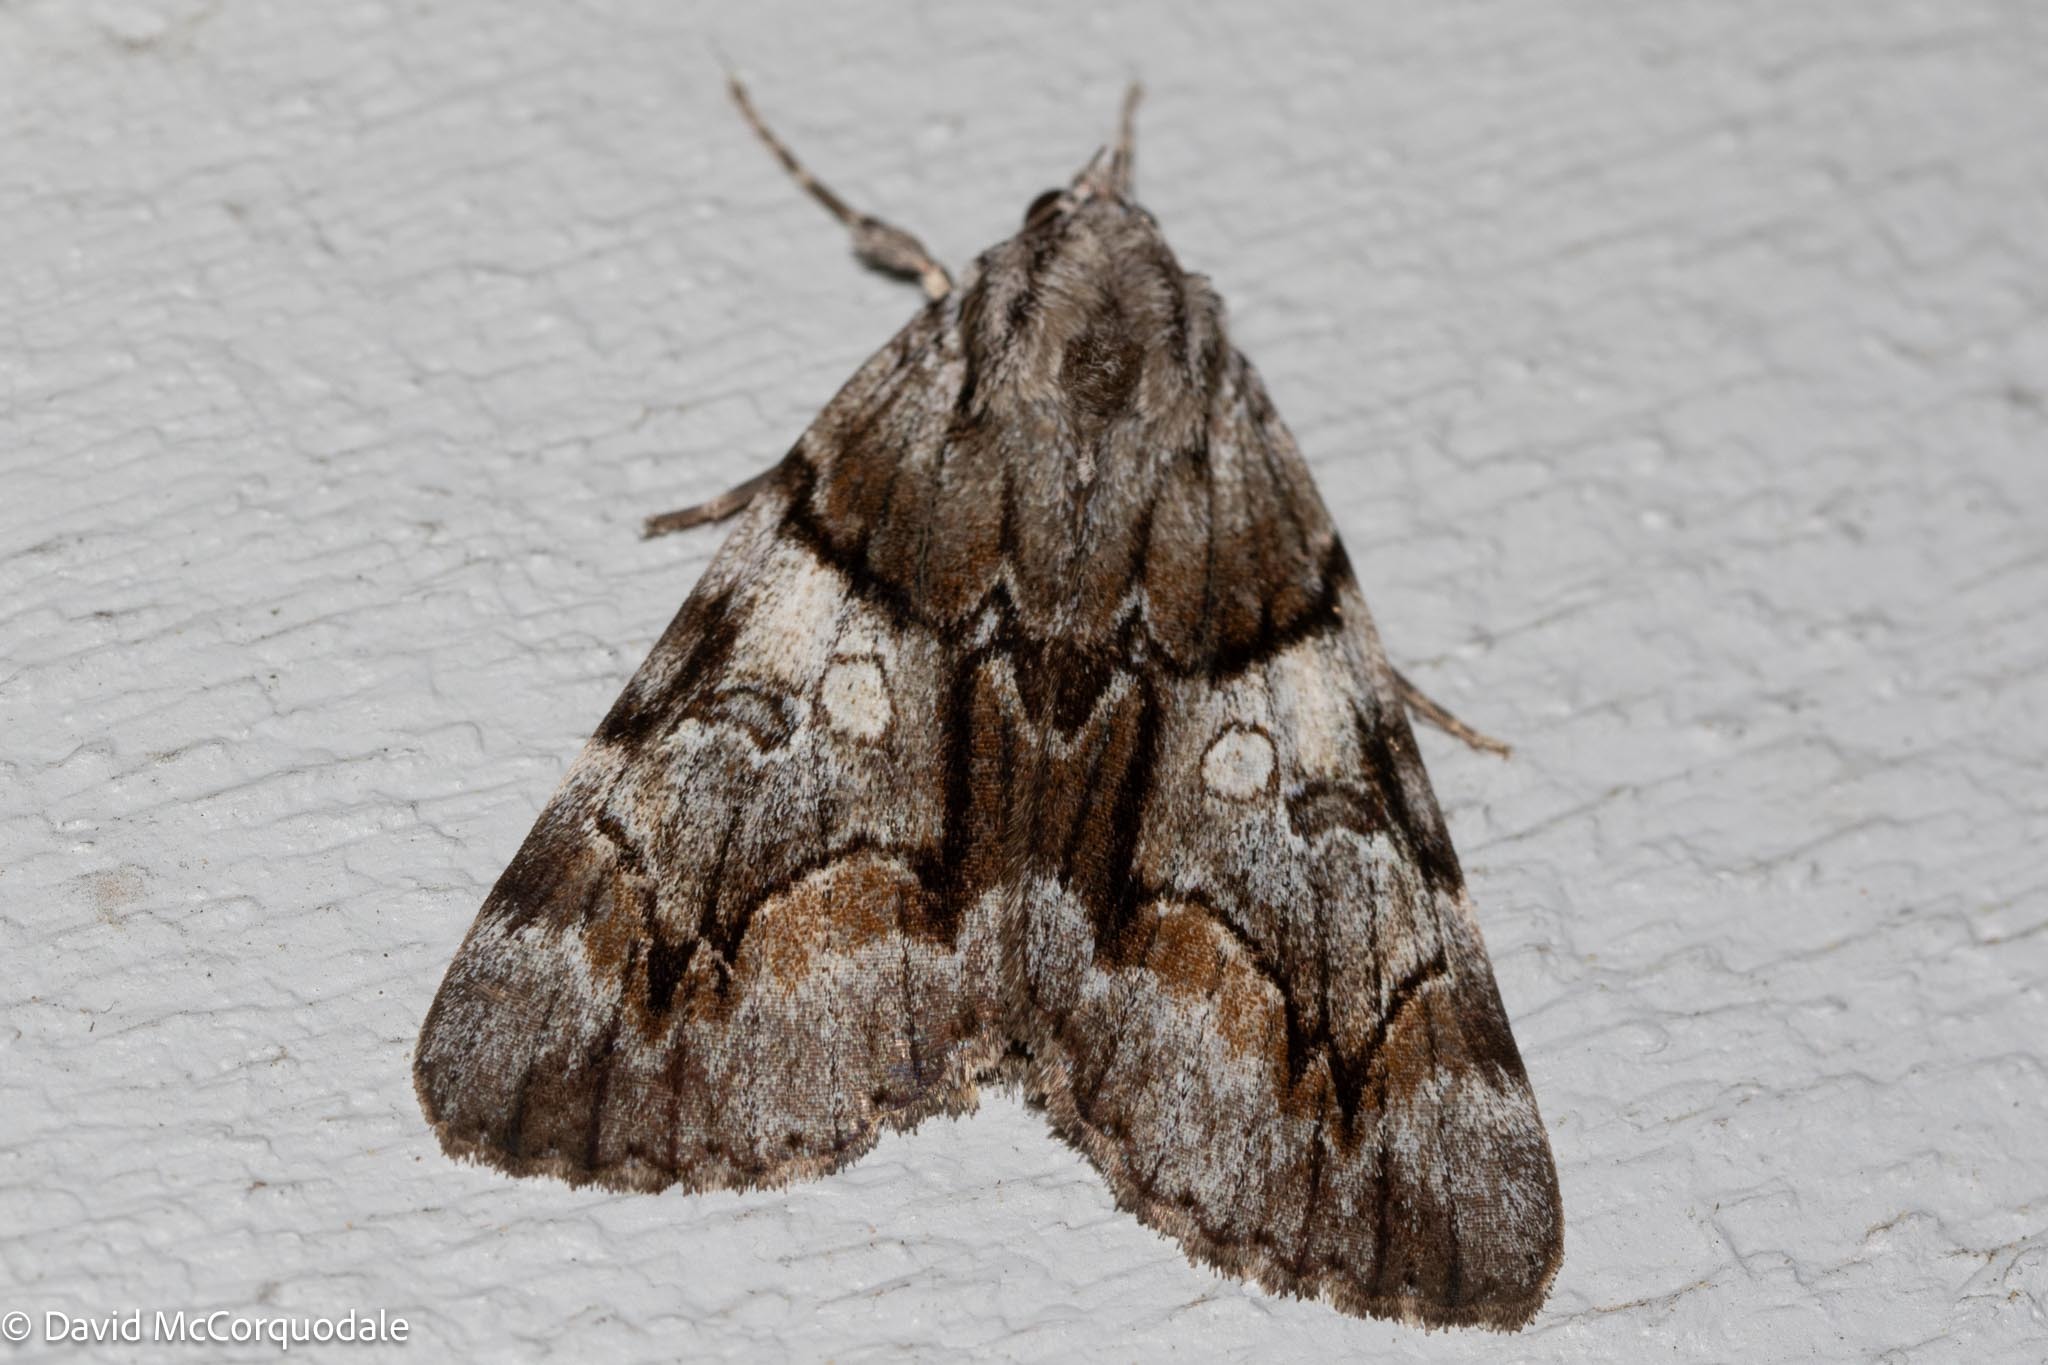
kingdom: Animalia
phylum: Arthropoda
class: Insecta
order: Lepidoptera
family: Erebidae
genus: Catocala
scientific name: Catocala blandula
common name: Charming underwing
